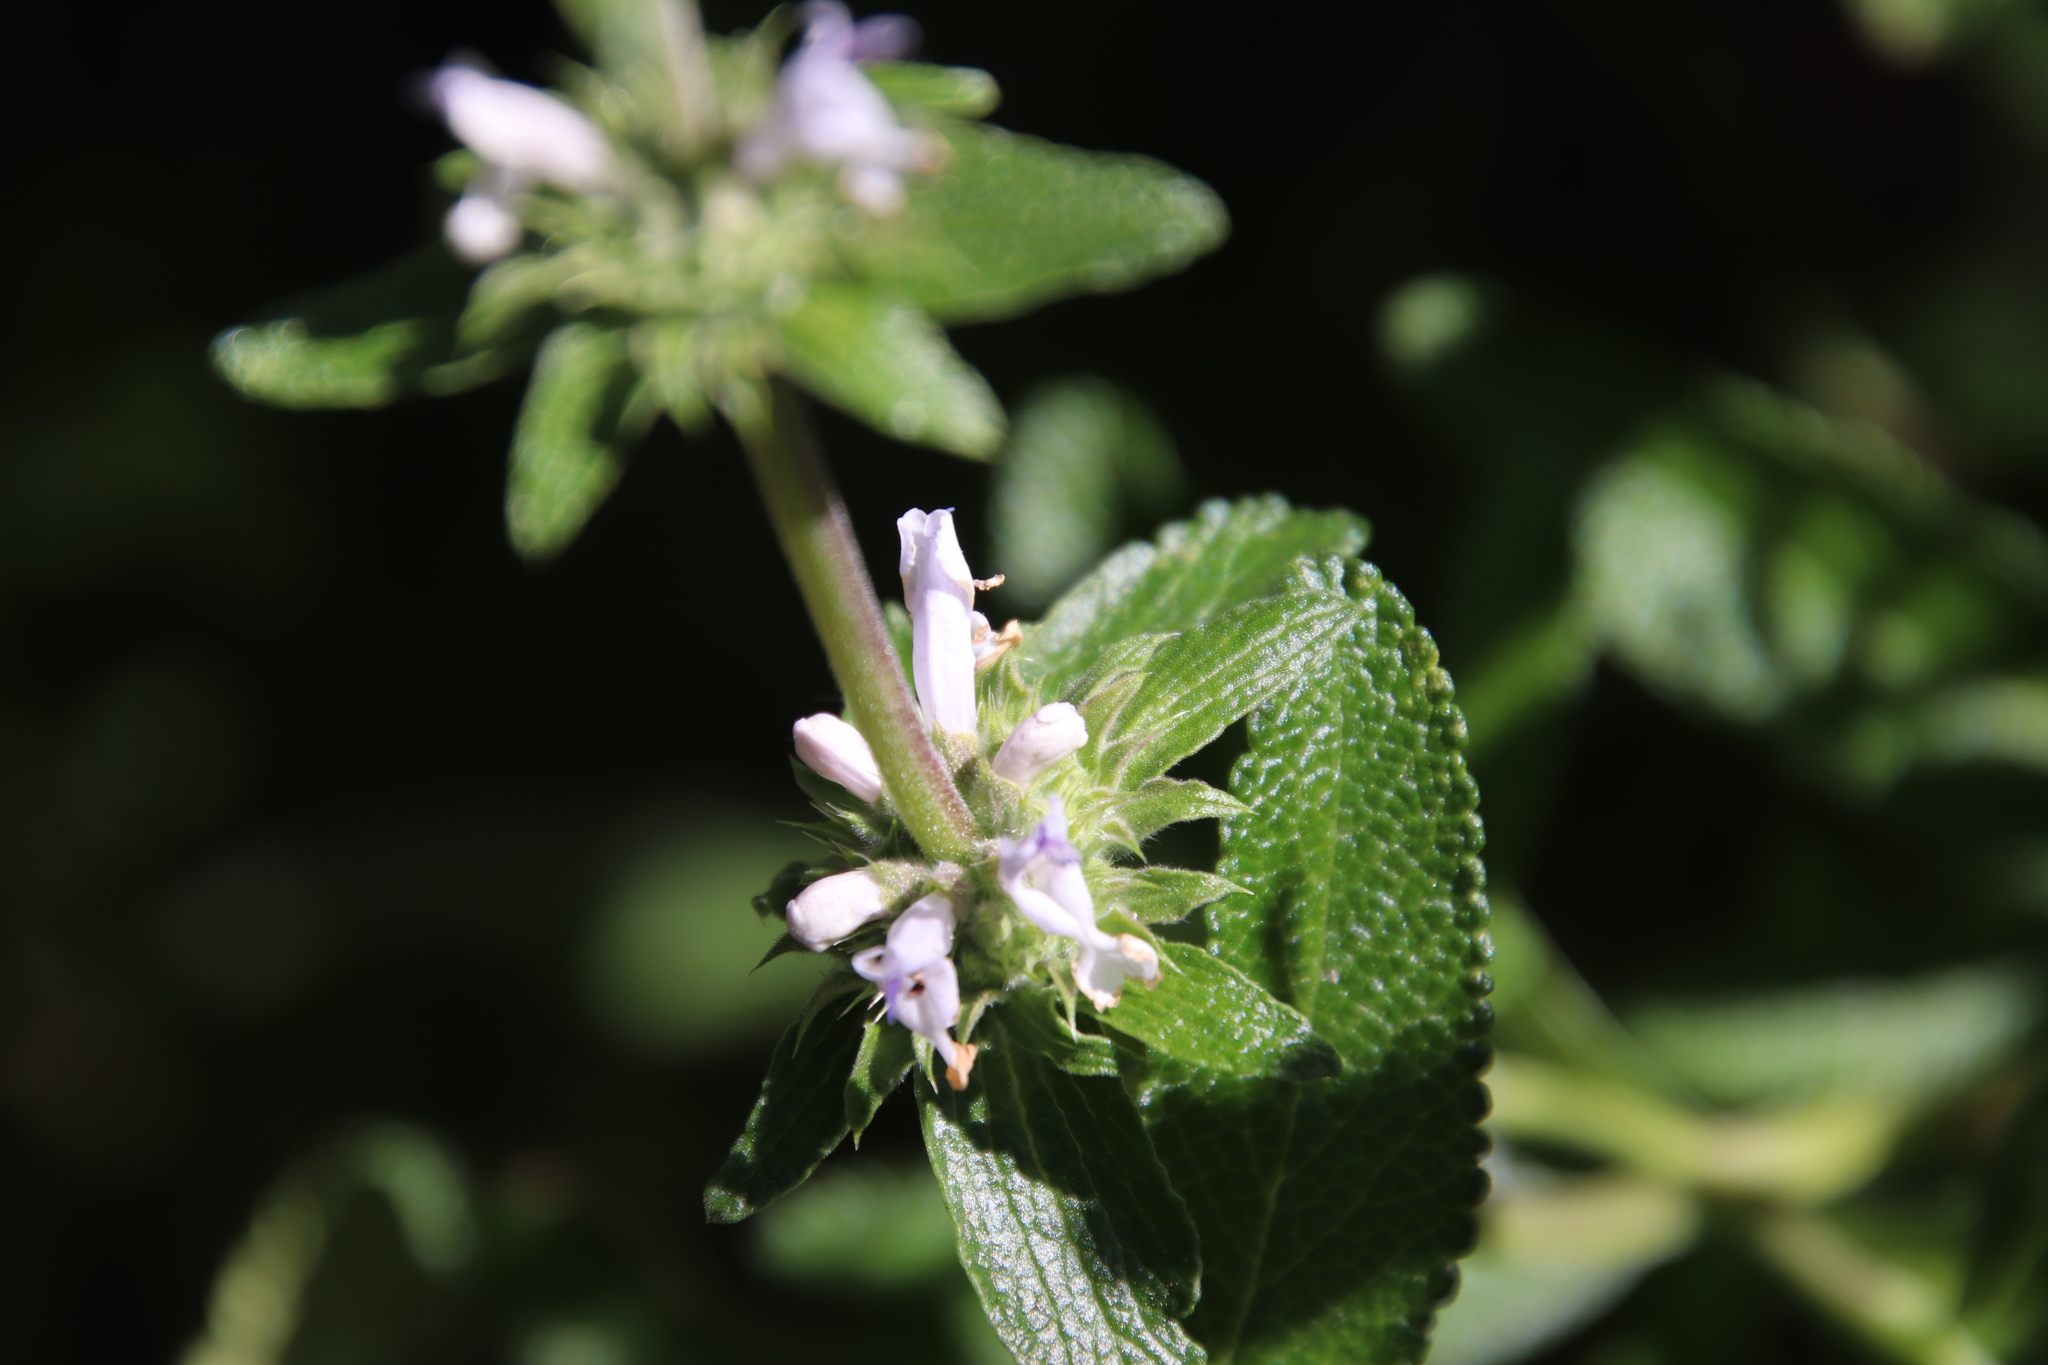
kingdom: Plantae
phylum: Tracheophyta
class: Magnoliopsida
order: Lamiales
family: Lamiaceae
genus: Salvia
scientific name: Salvia mellifera
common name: Black sage
